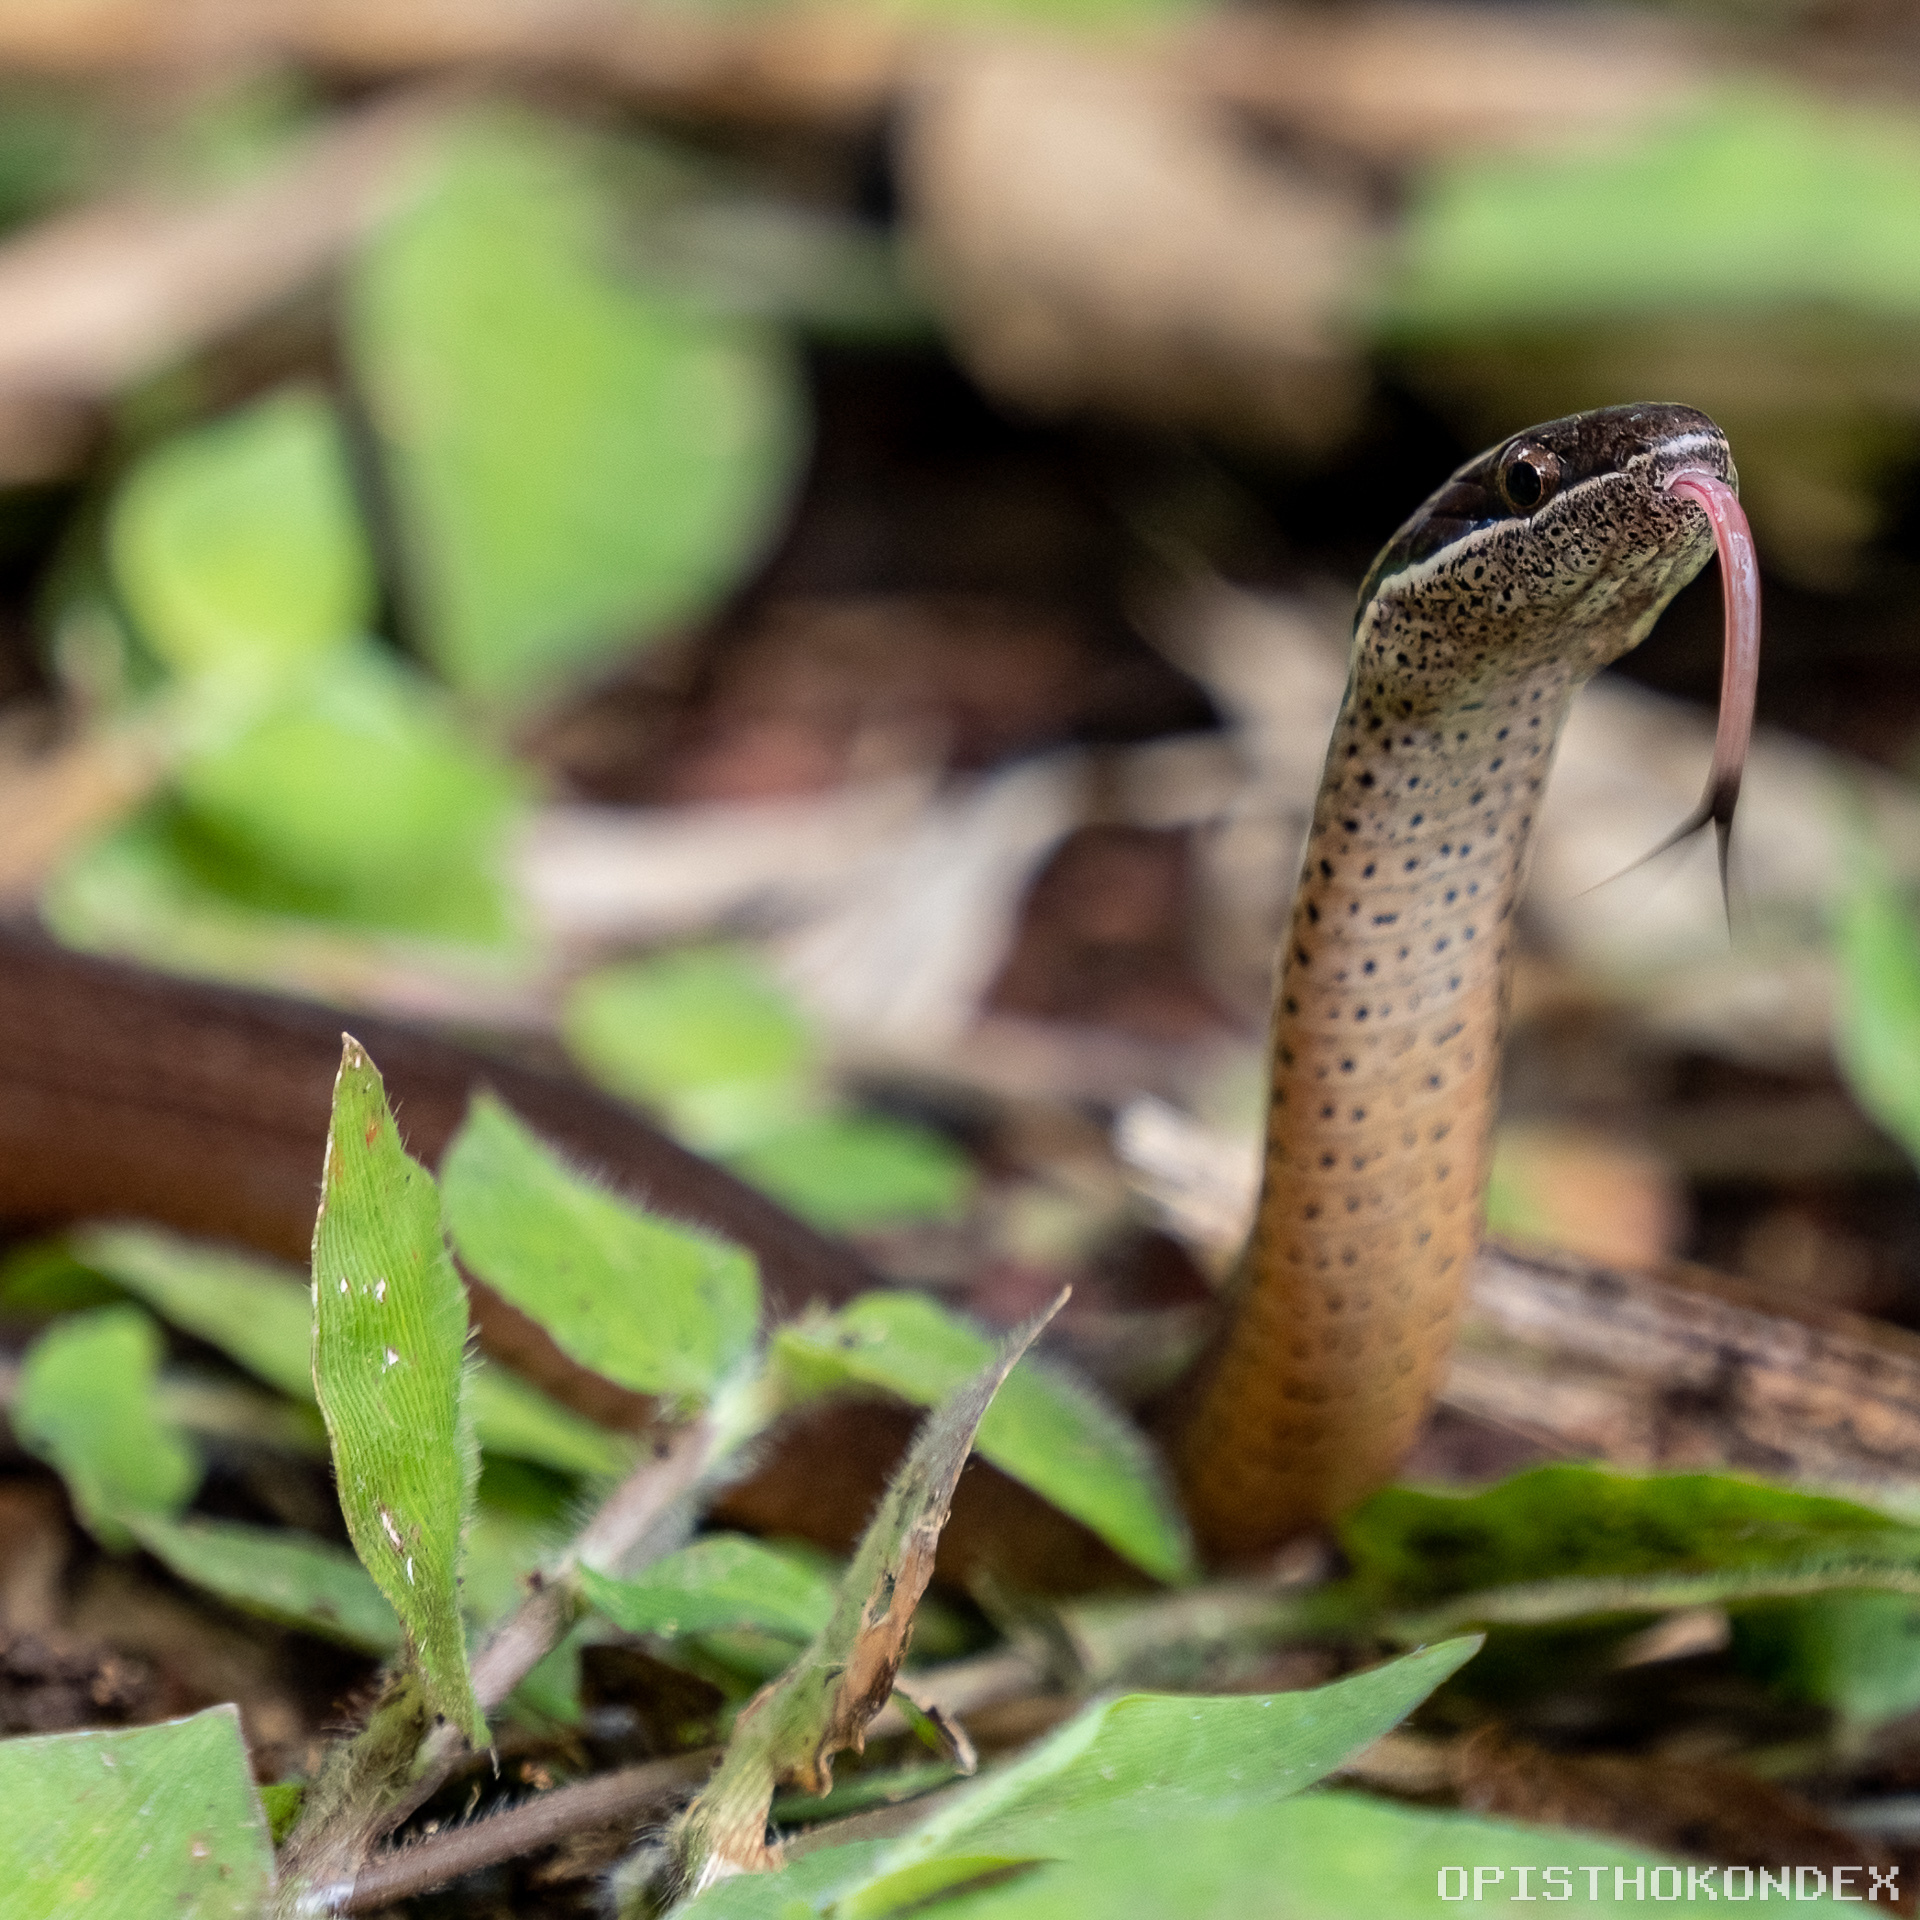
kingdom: Animalia
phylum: Chordata
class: Squamata
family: Colubridae
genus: Coniophanes
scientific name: Coniophanes fissidens
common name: Yellowbelly snake
